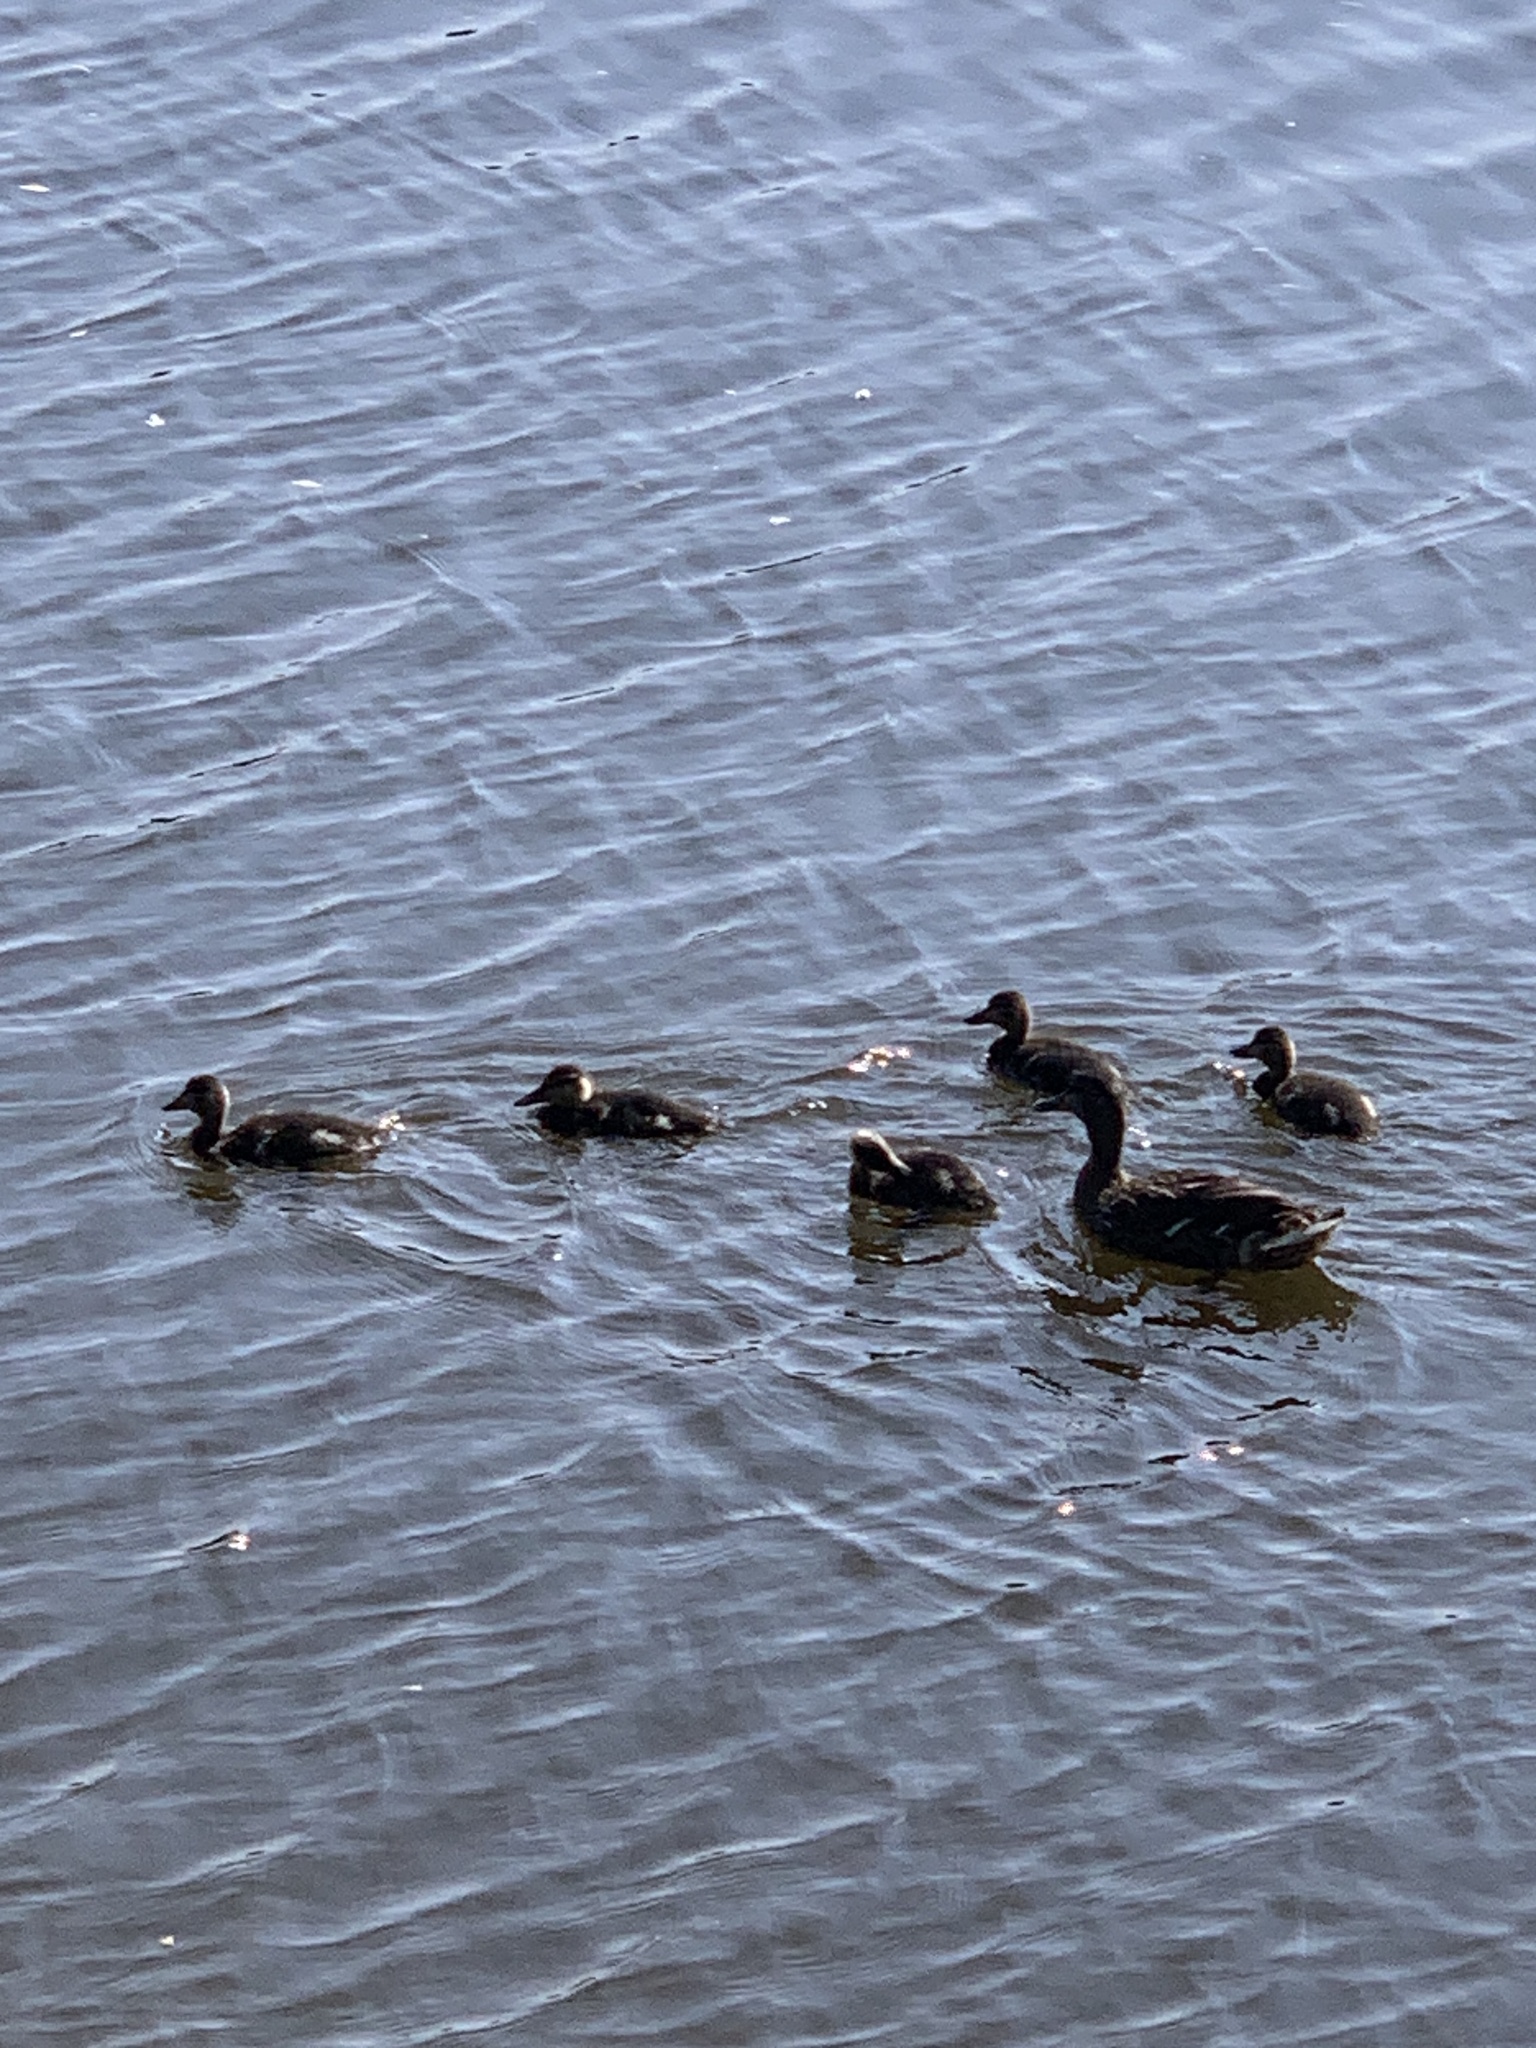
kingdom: Animalia
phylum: Chordata
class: Aves
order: Anseriformes
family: Anatidae
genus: Anas
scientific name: Anas platyrhynchos
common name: Mallard
